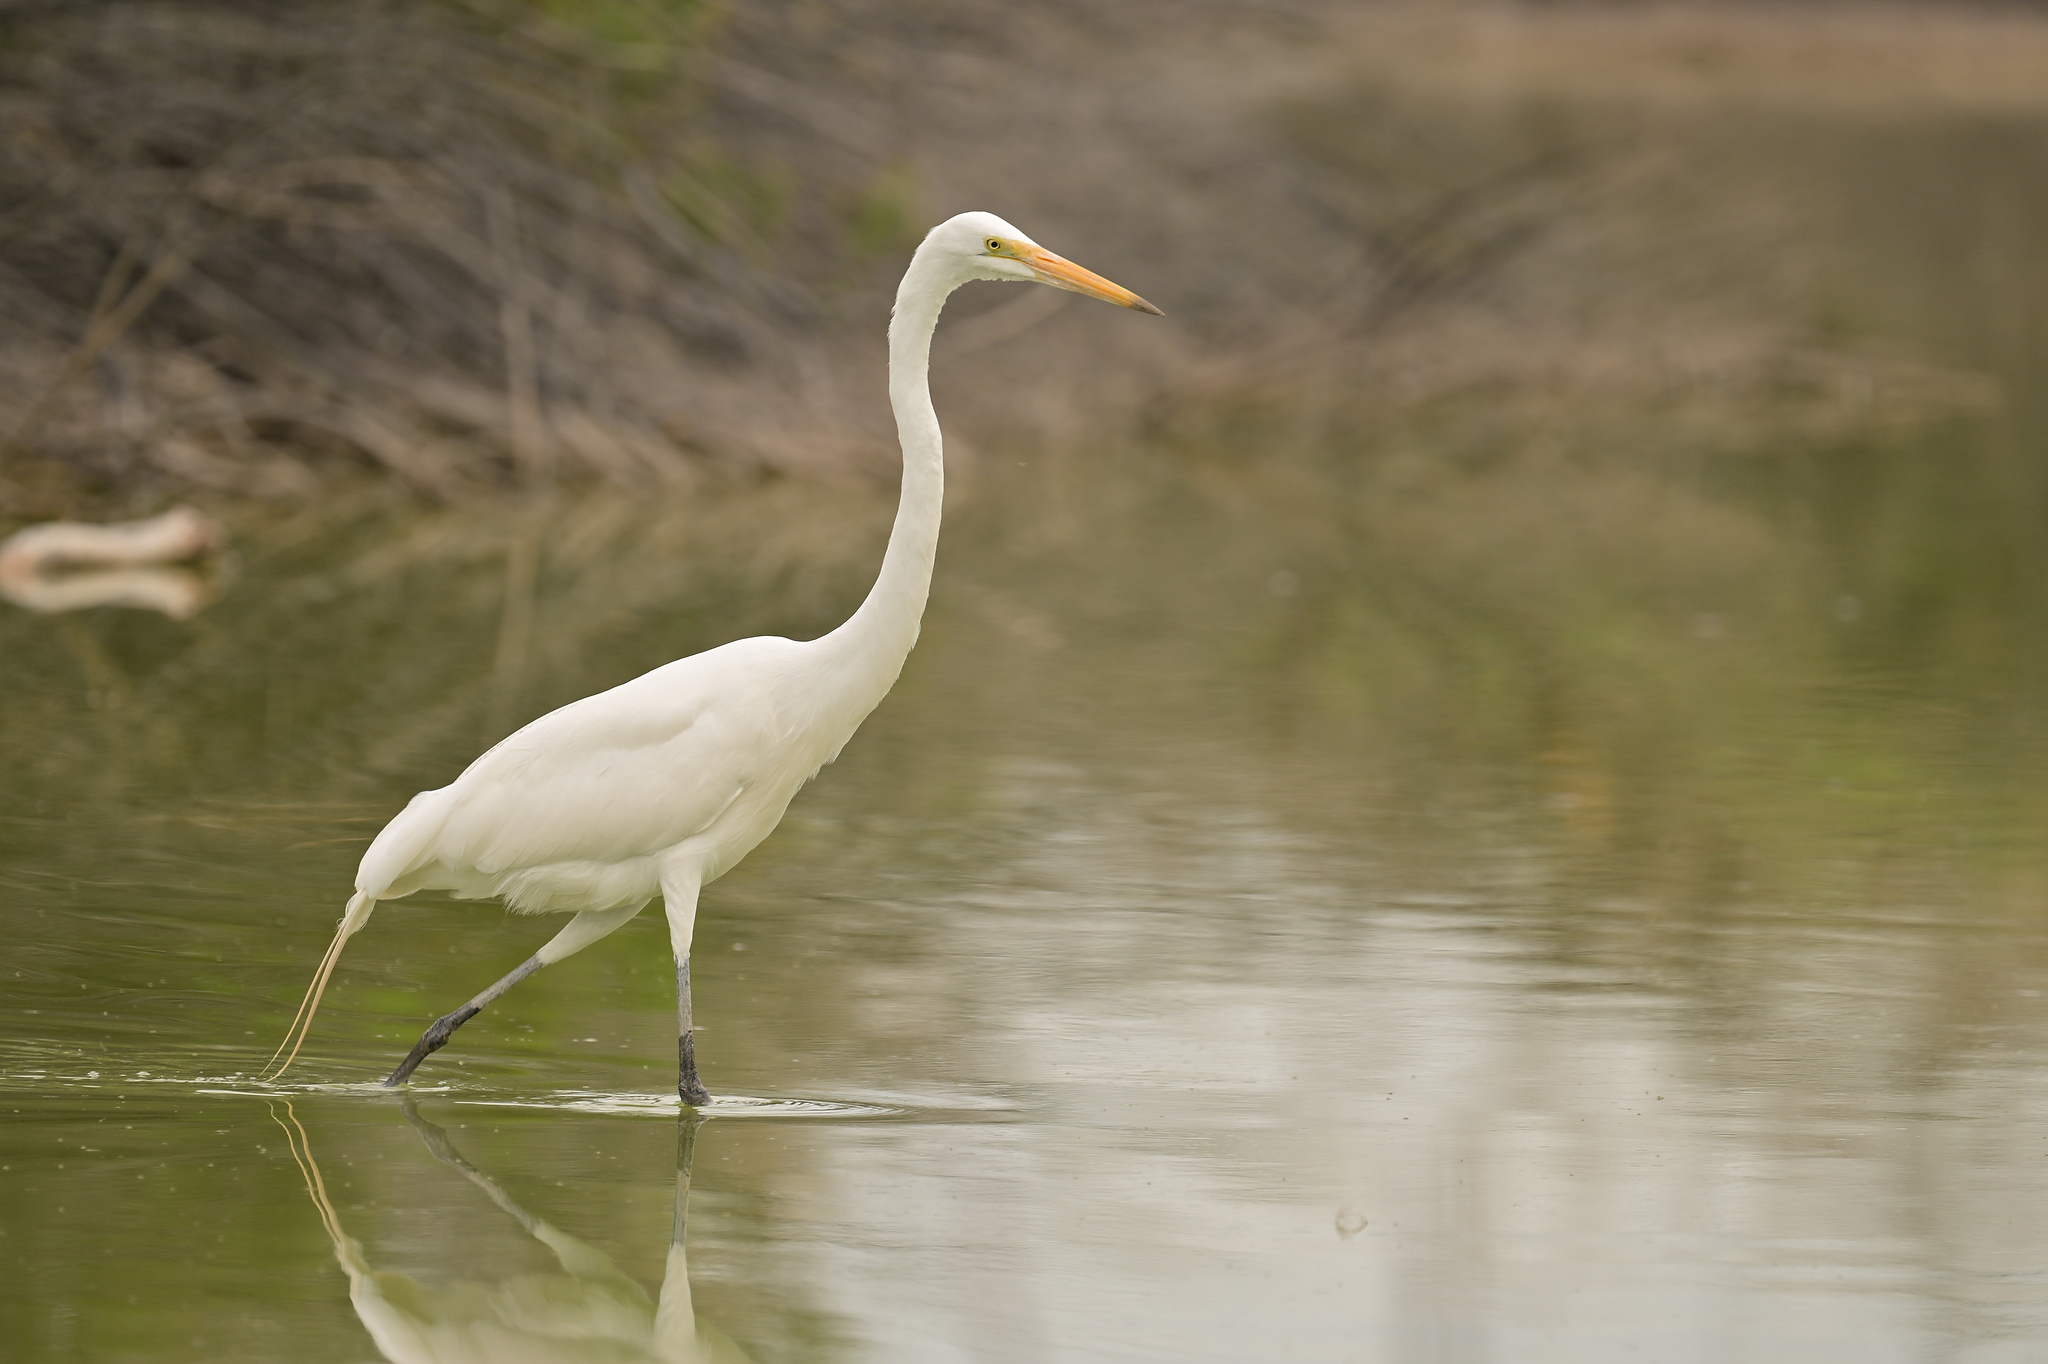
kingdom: Animalia
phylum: Chordata
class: Aves
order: Pelecaniformes
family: Ardeidae
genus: Ardea
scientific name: Ardea alba
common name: Great egret
